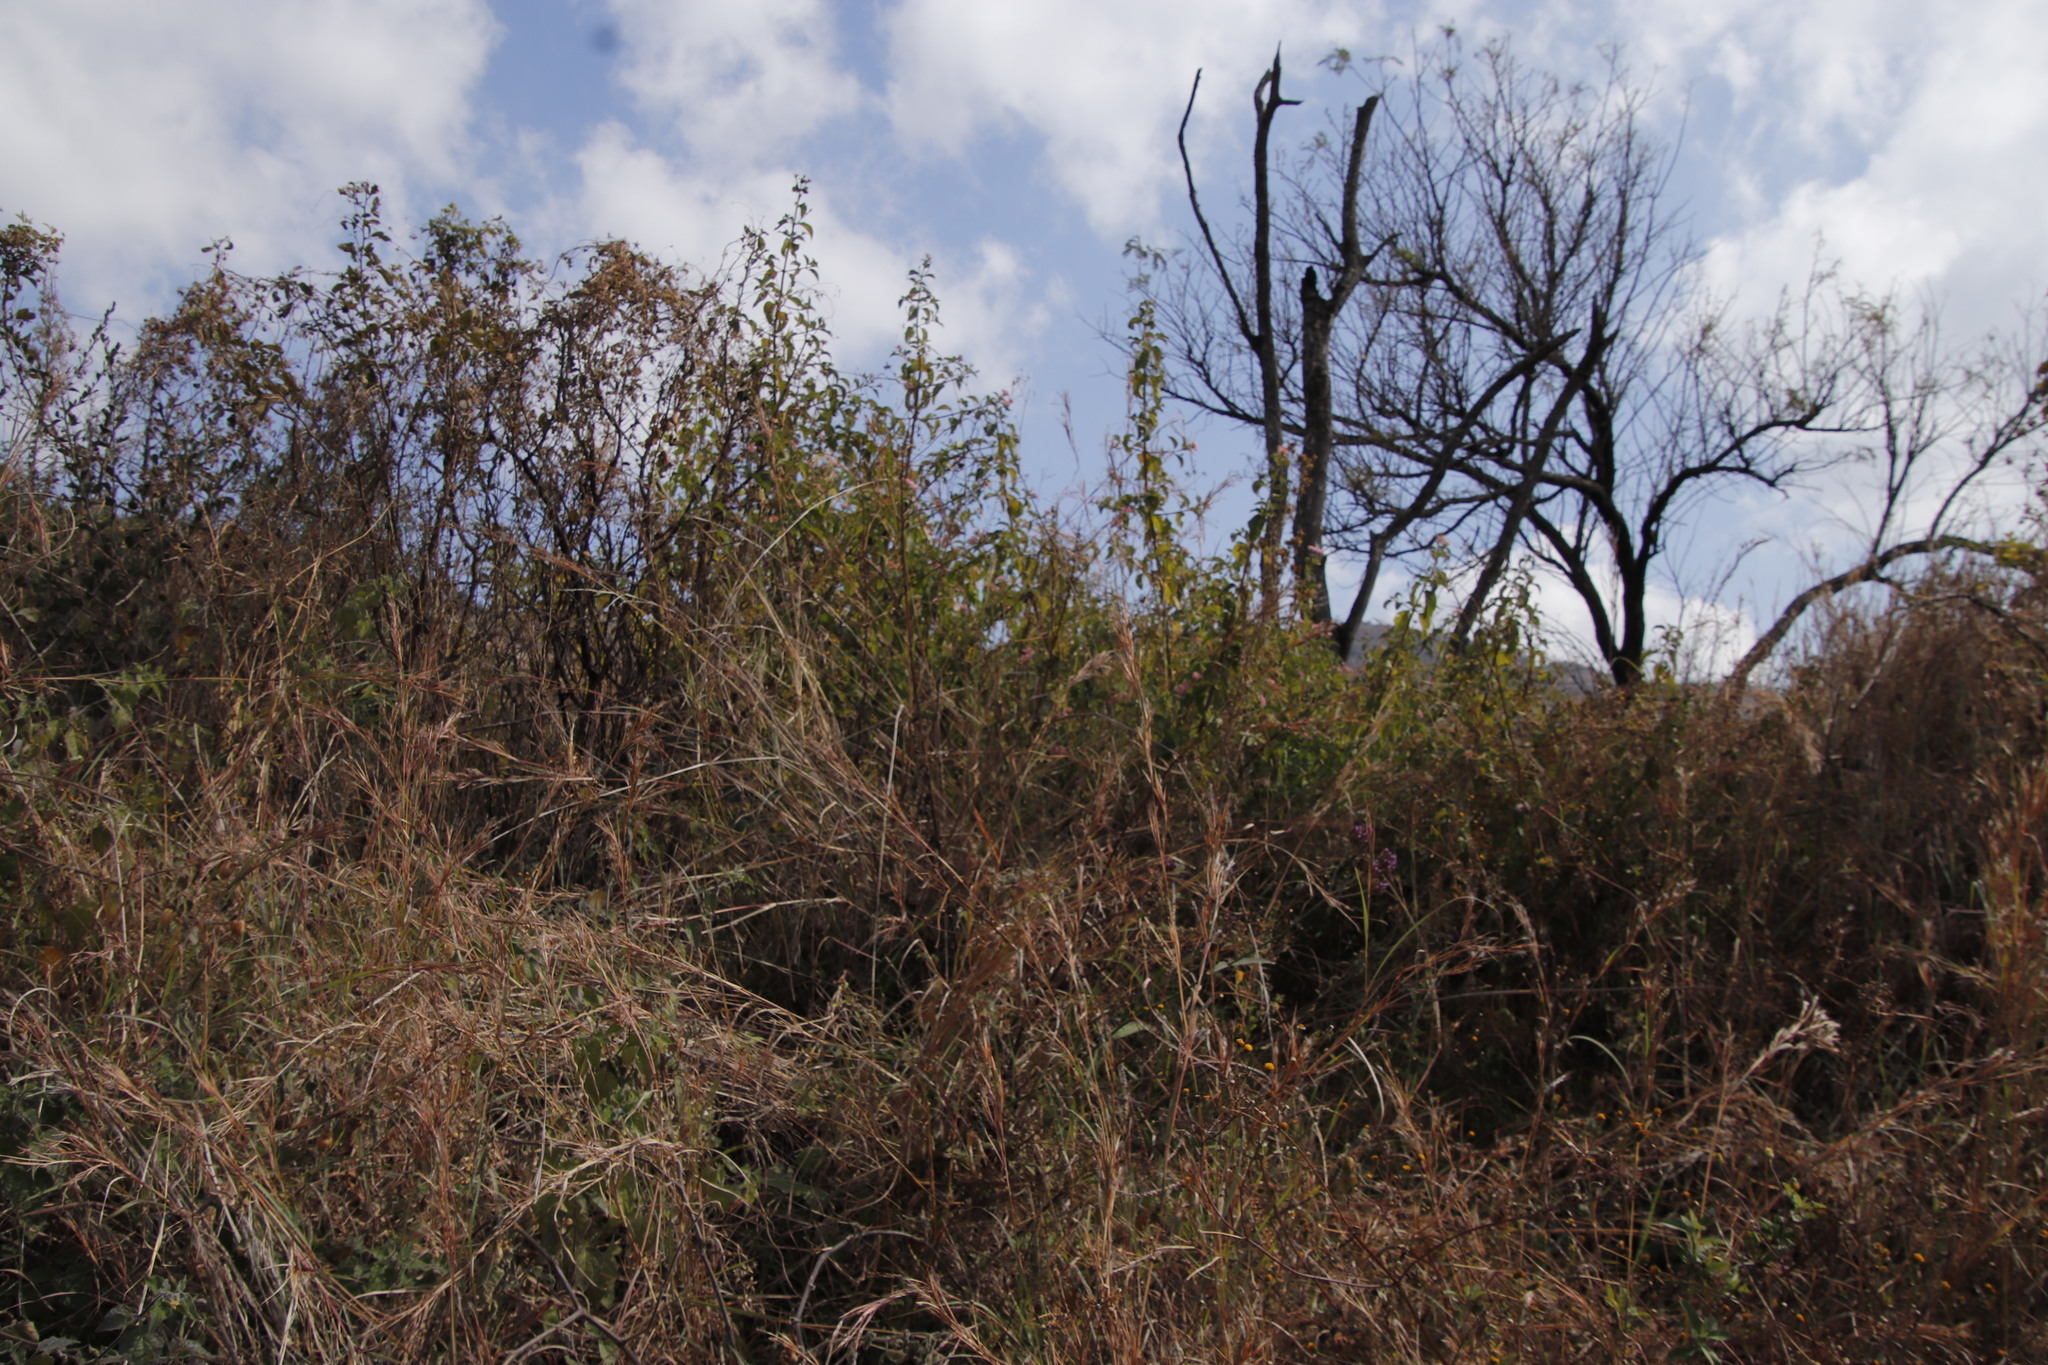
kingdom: Plantae
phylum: Tracheophyta
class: Magnoliopsida
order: Lamiales
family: Verbenaceae
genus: Lantana
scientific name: Lantana camara
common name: Lantana
